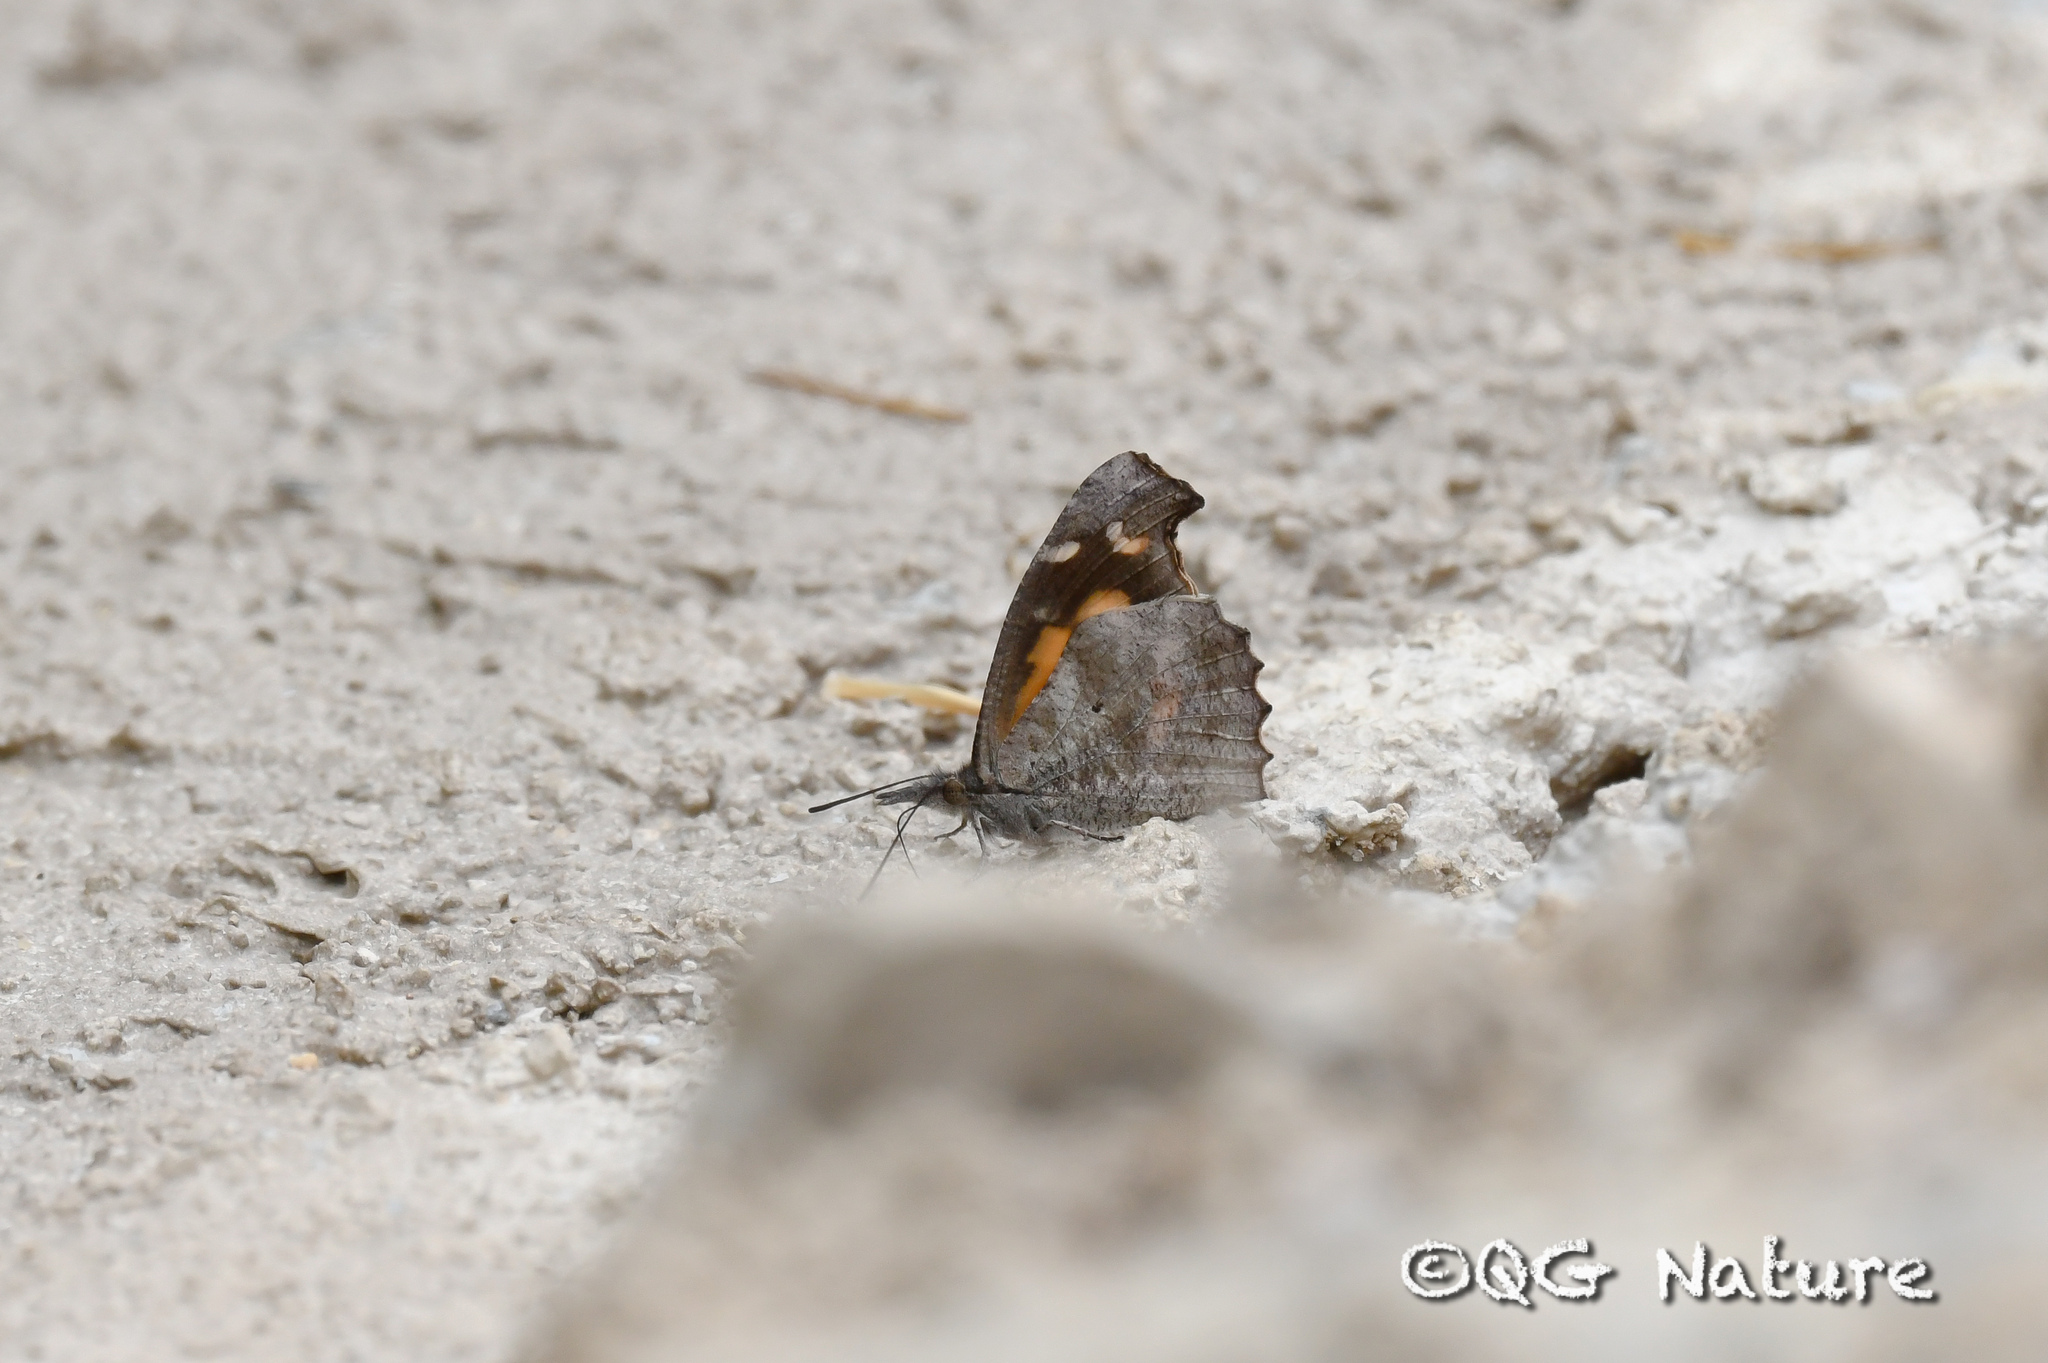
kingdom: Animalia
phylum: Arthropoda
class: Insecta
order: Lepidoptera
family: Nymphalidae
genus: Libythea
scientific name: Libythea lepita
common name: Common beak
